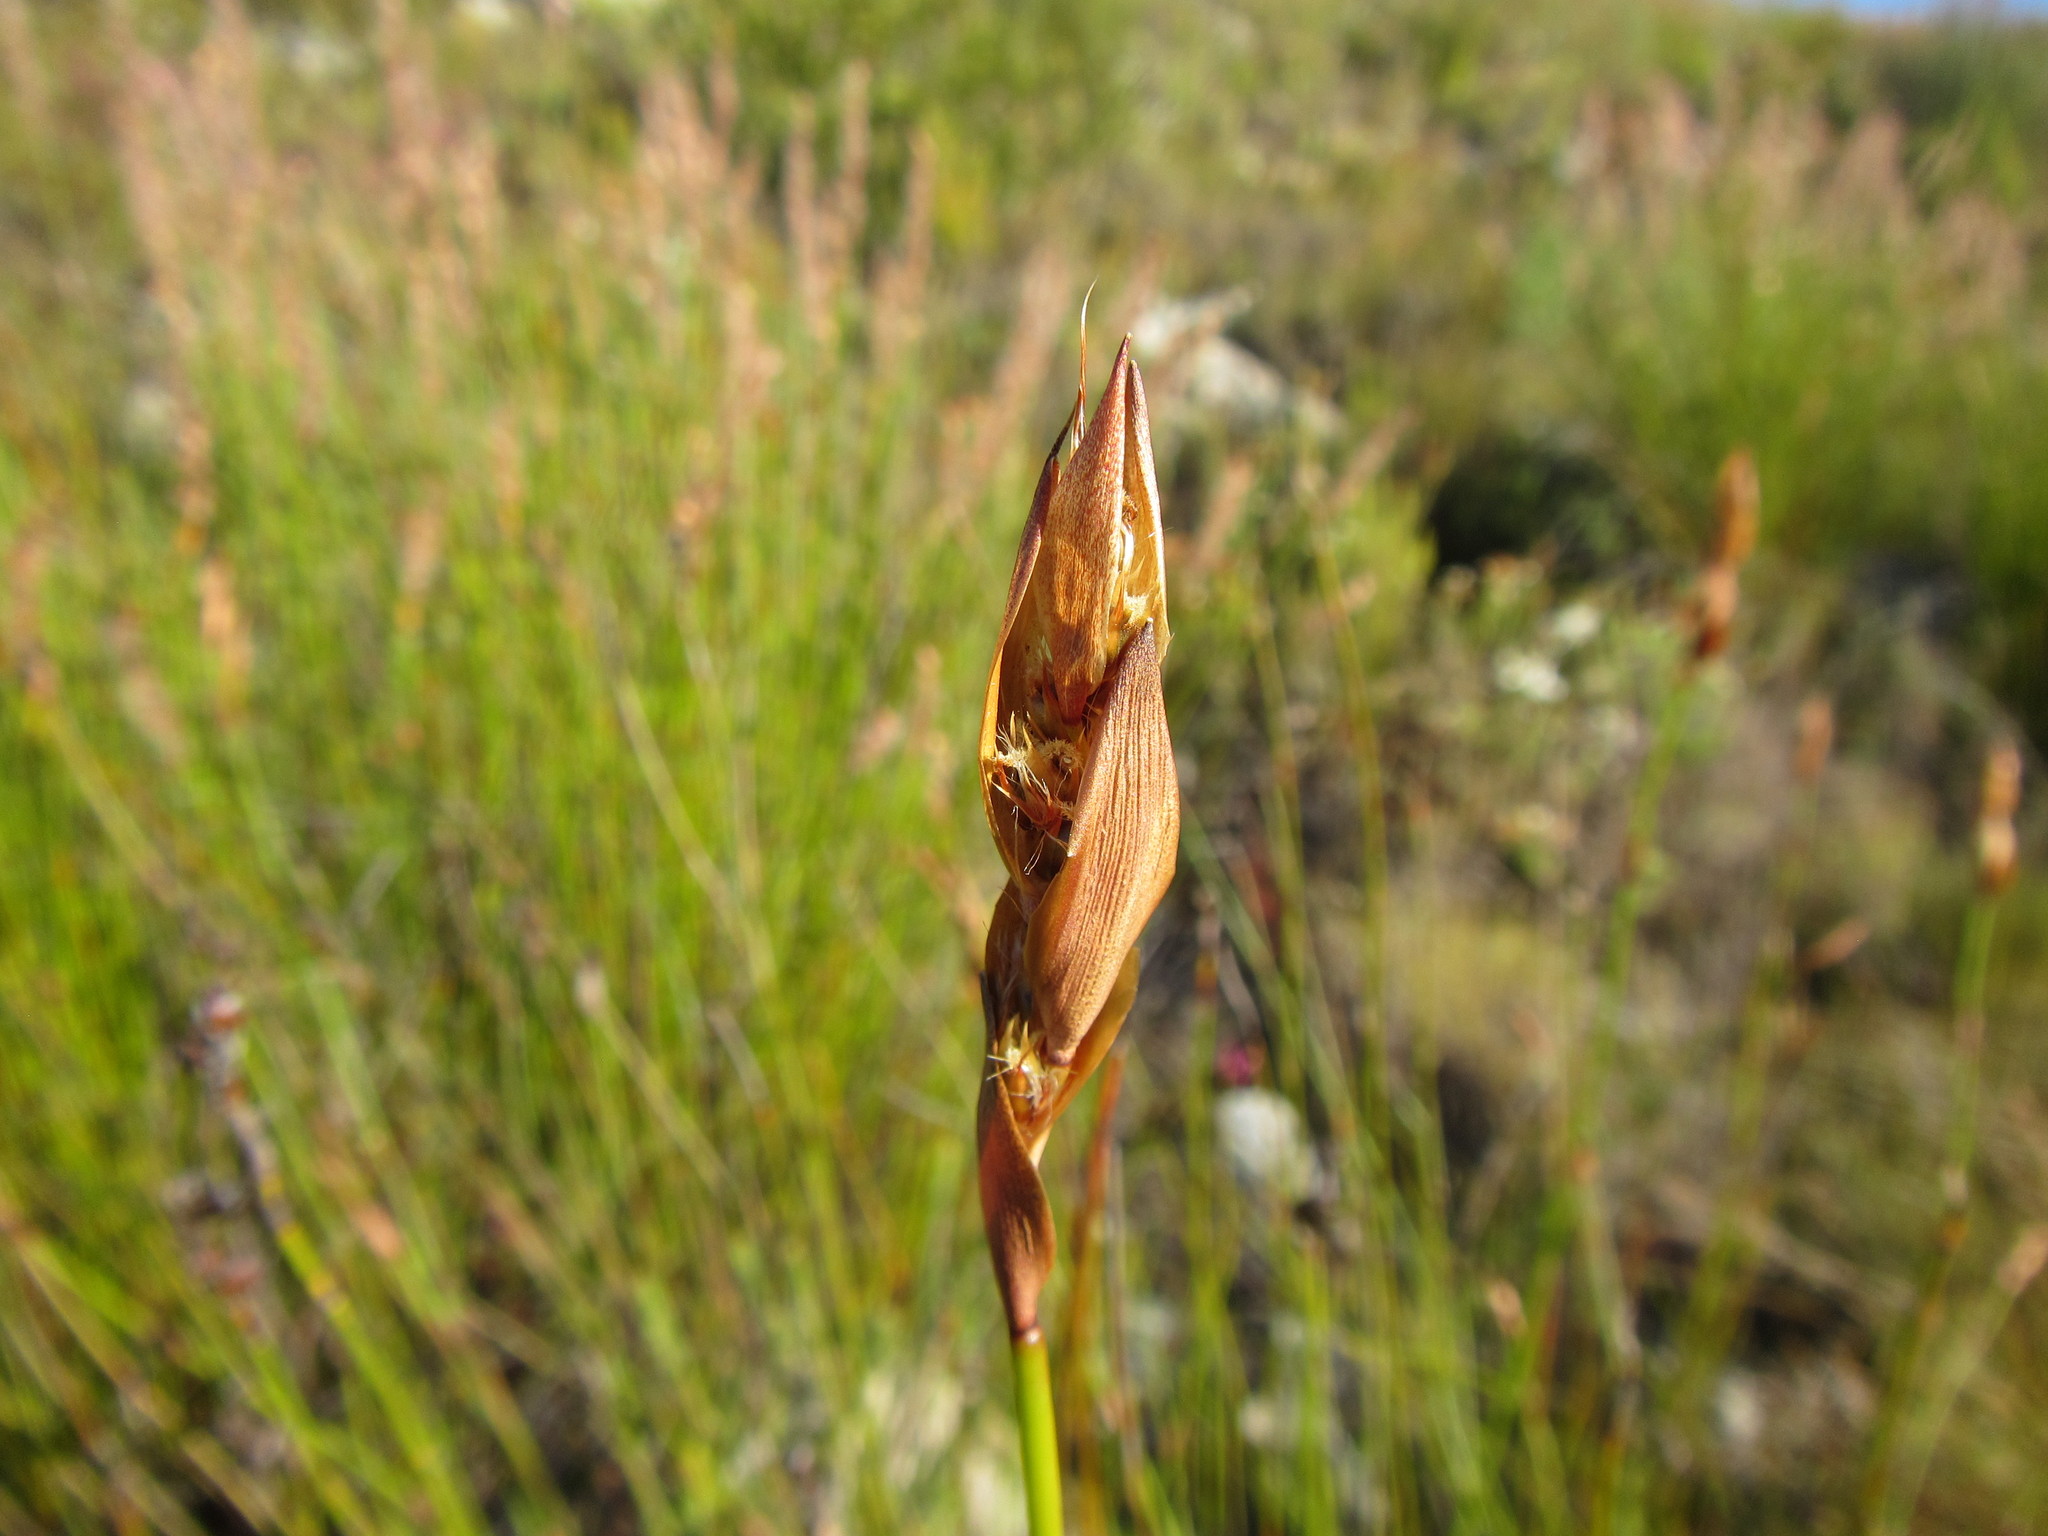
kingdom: Plantae
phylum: Tracheophyta
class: Liliopsida
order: Poales
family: Restionaceae
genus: Askidiosperma
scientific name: Askidiosperma paniculatum
